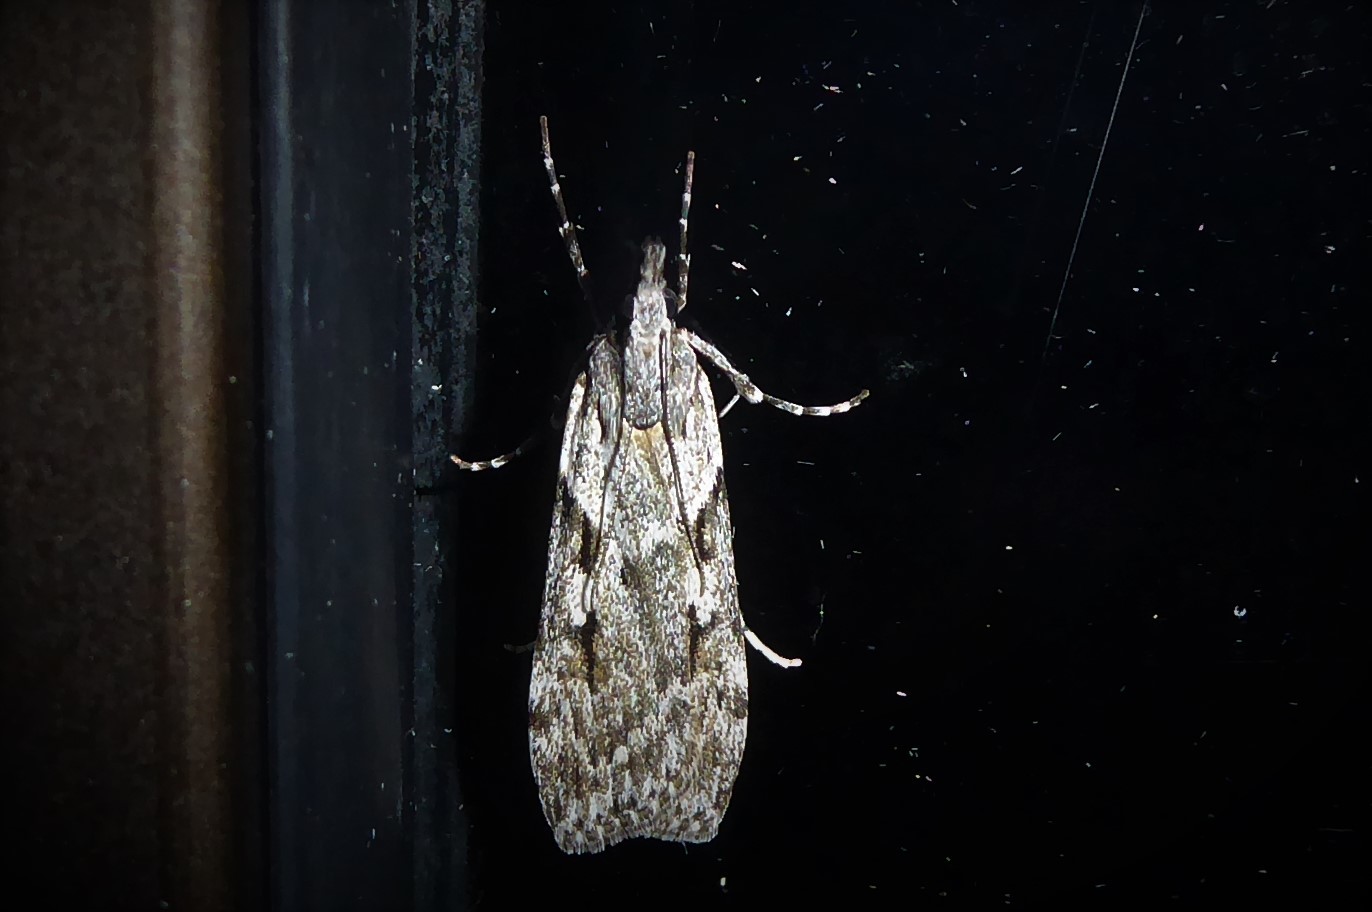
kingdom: Animalia
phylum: Arthropoda
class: Insecta
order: Lepidoptera
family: Crambidae
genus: Scoparia
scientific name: Scoparia halopis
